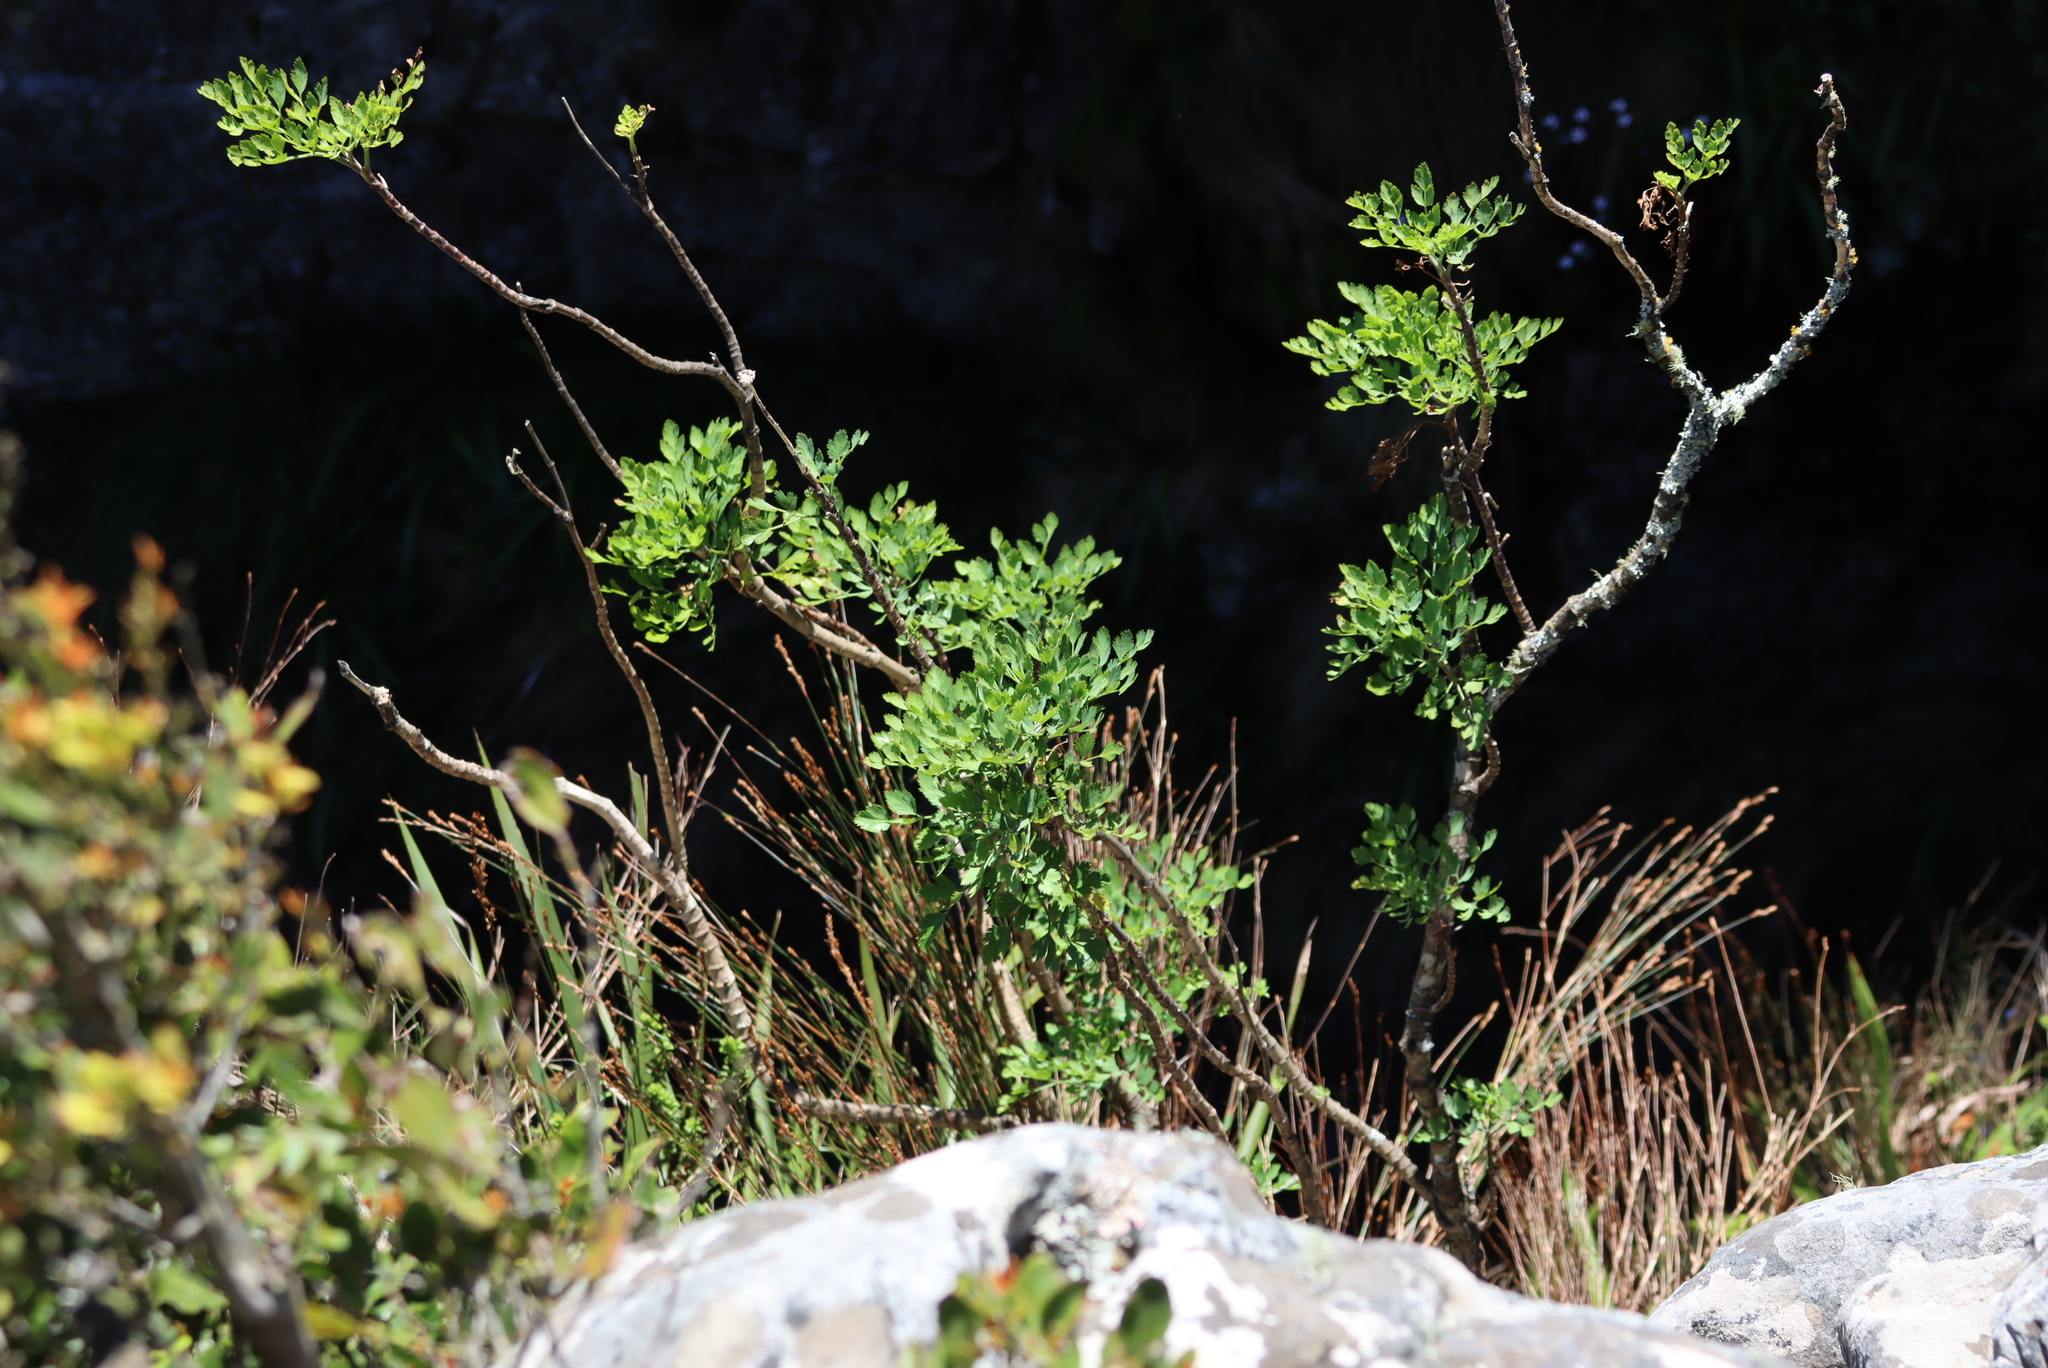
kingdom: Plantae
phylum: Tracheophyta
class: Magnoliopsida
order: Apiales
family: Apiaceae
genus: Notobubon
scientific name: Notobubon galbanum
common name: Blisterbush
